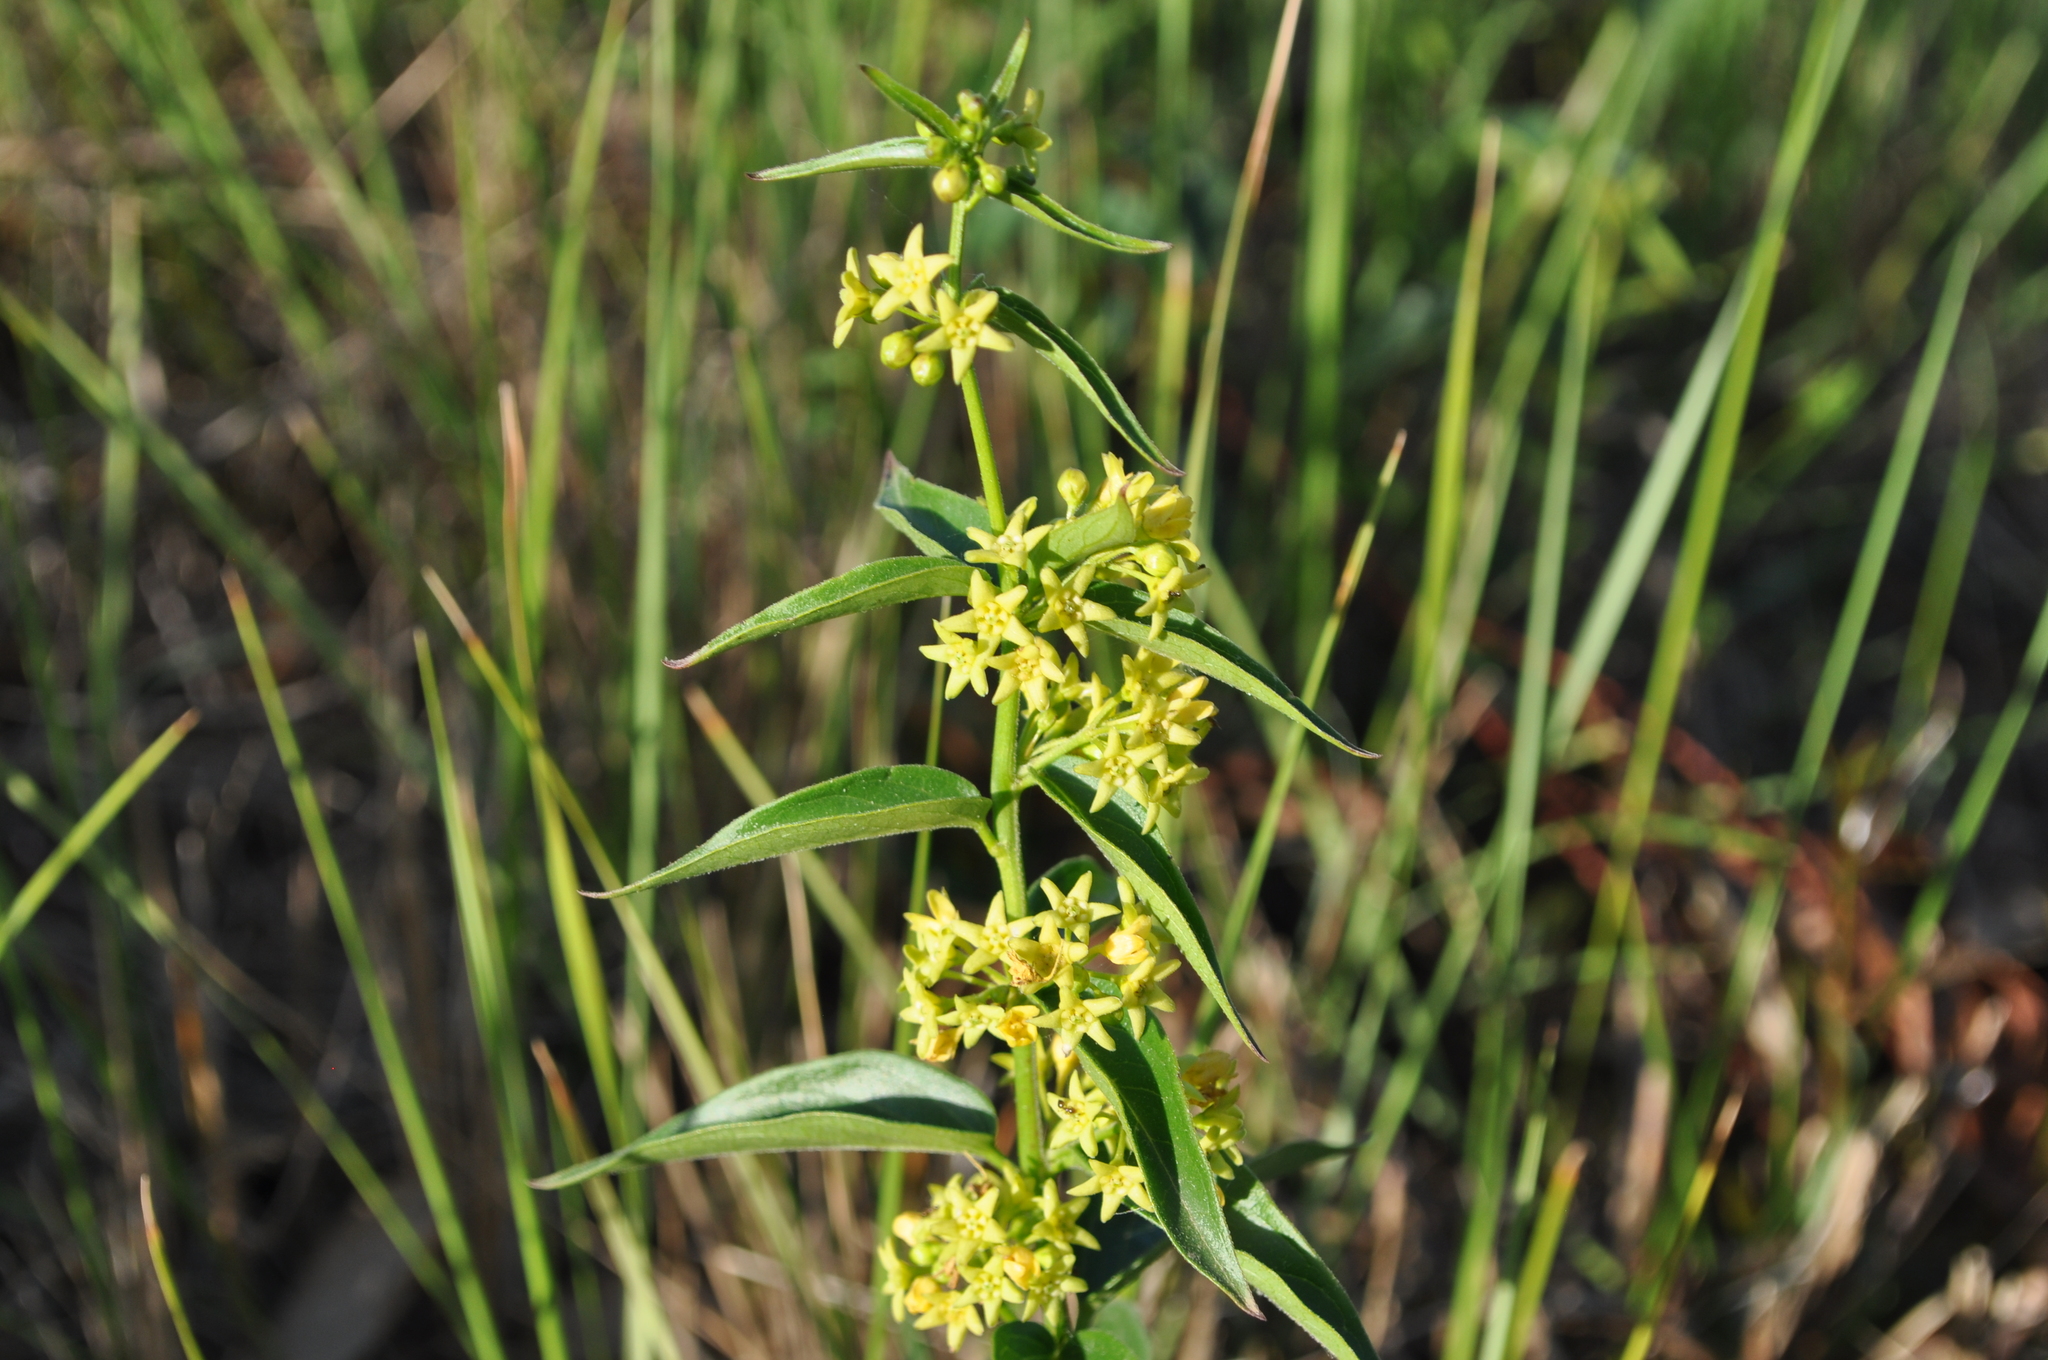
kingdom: Plantae
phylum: Tracheophyta
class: Magnoliopsida
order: Gentianales
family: Apocynaceae
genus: Vincetoxicum
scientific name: Vincetoxicum hirundinaria
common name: White swallowwort
